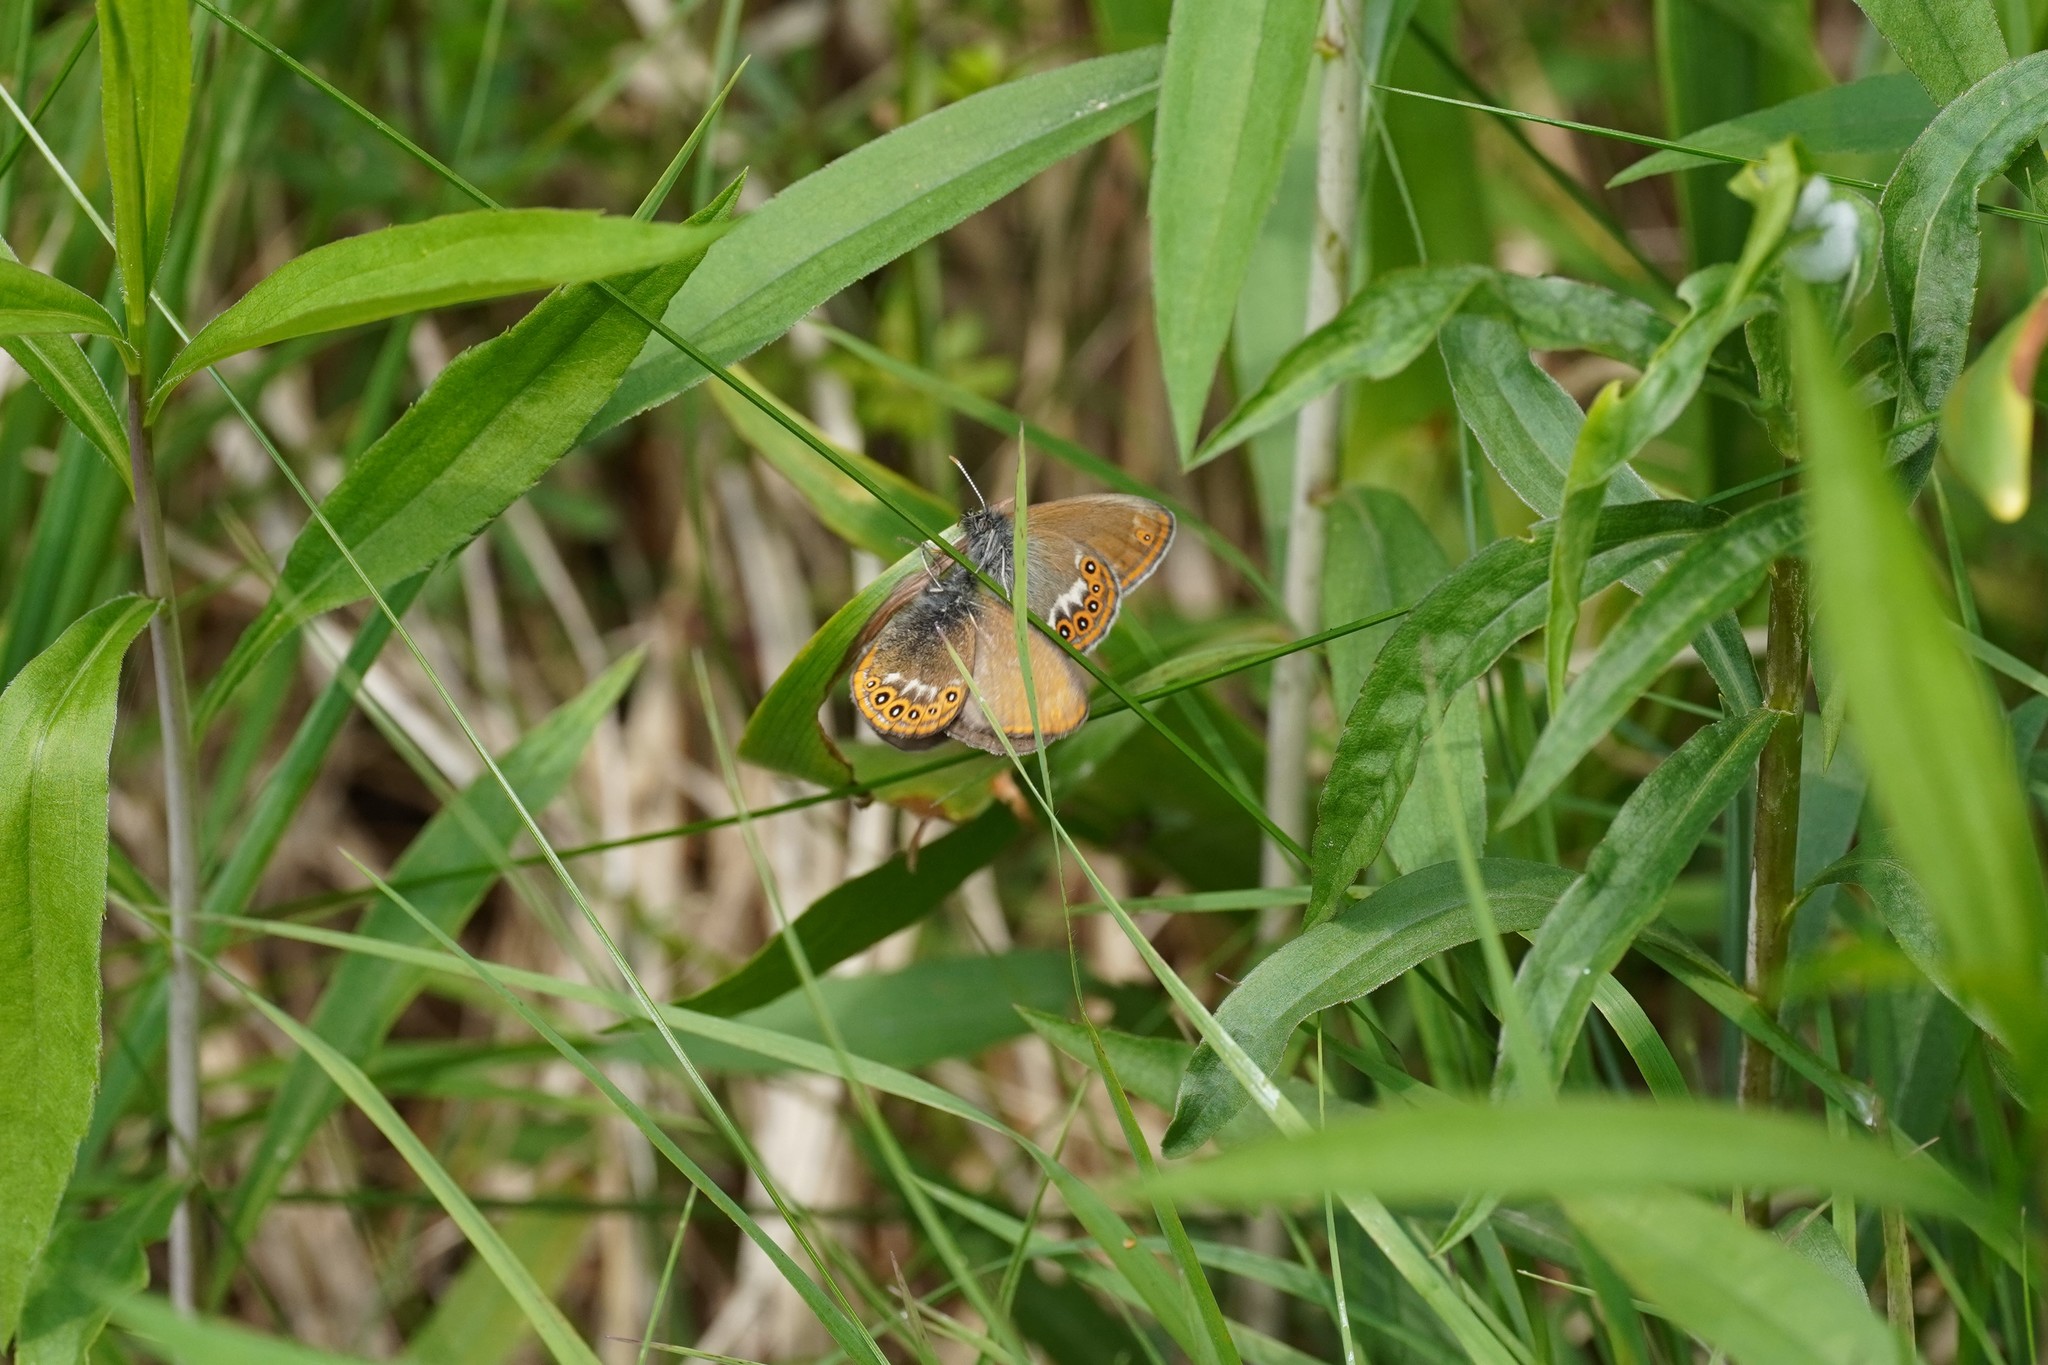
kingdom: Animalia
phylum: Arthropoda
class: Insecta
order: Lepidoptera
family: Nymphalidae
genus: Coenonympha
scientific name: Coenonympha hero
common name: Scarce heath
